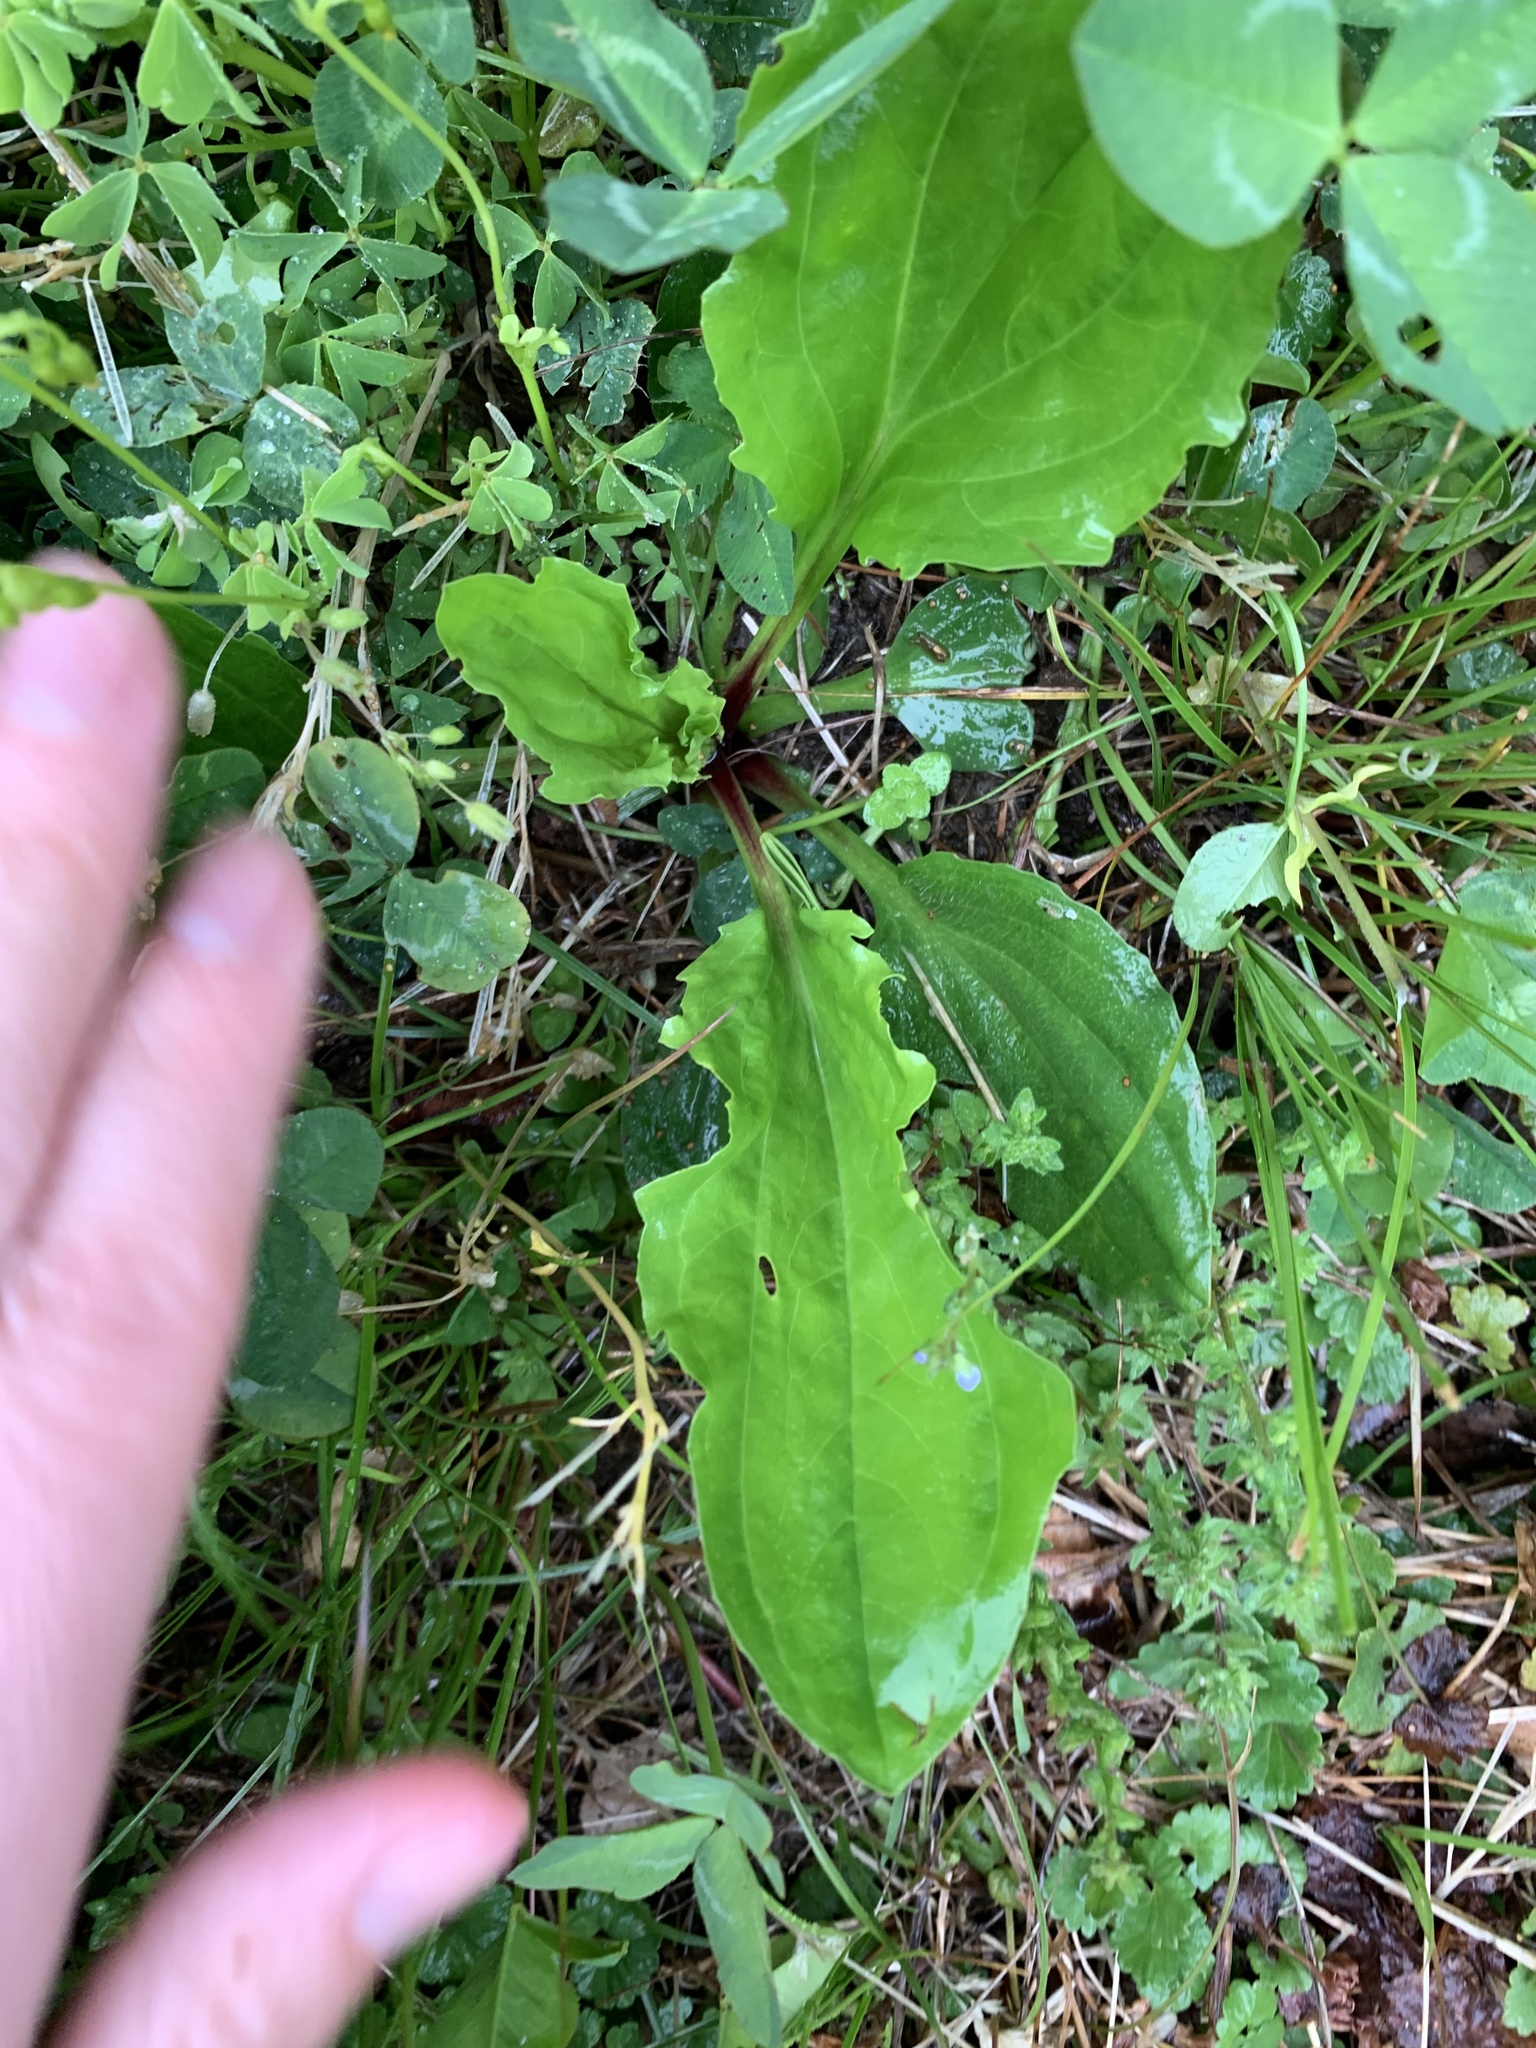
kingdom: Plantae
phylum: Tracheophyta
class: Magnoliopsida
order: Lamiales
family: Plantaginaceae
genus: Plantago
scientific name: Plantago rugelii
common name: American plantain
